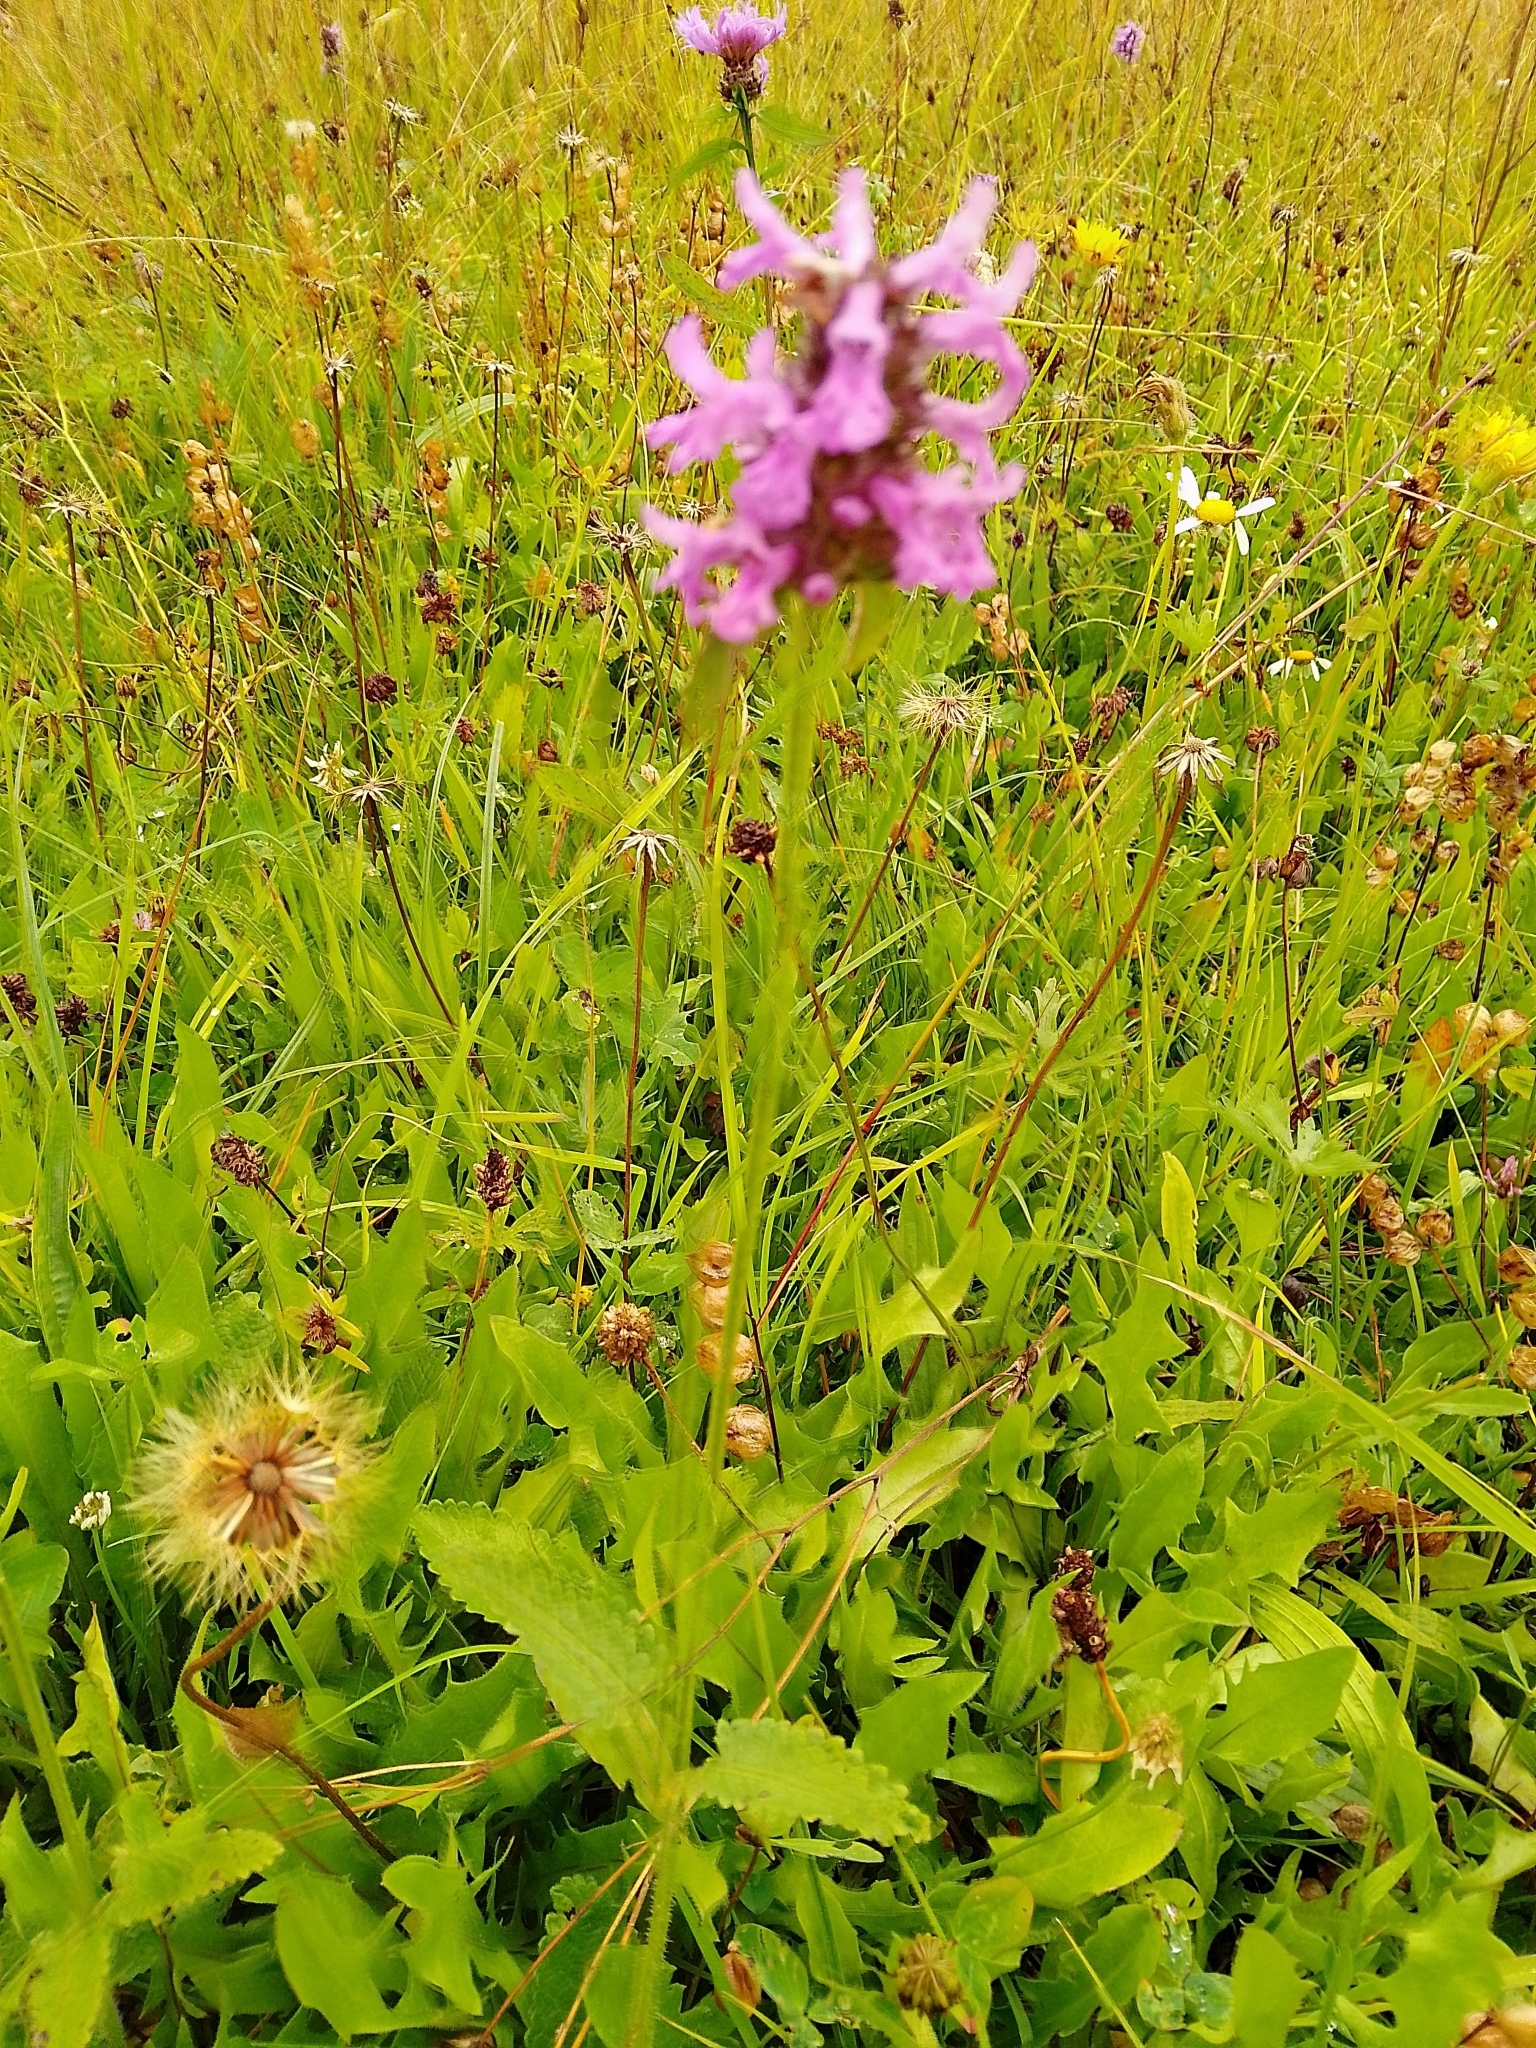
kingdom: Plantae
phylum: Tracheophyta
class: Magnoliopsida
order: Lamiales
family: Lamiaceae
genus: Betonica
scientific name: Betonica officinalis
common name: Bishop's-wort
